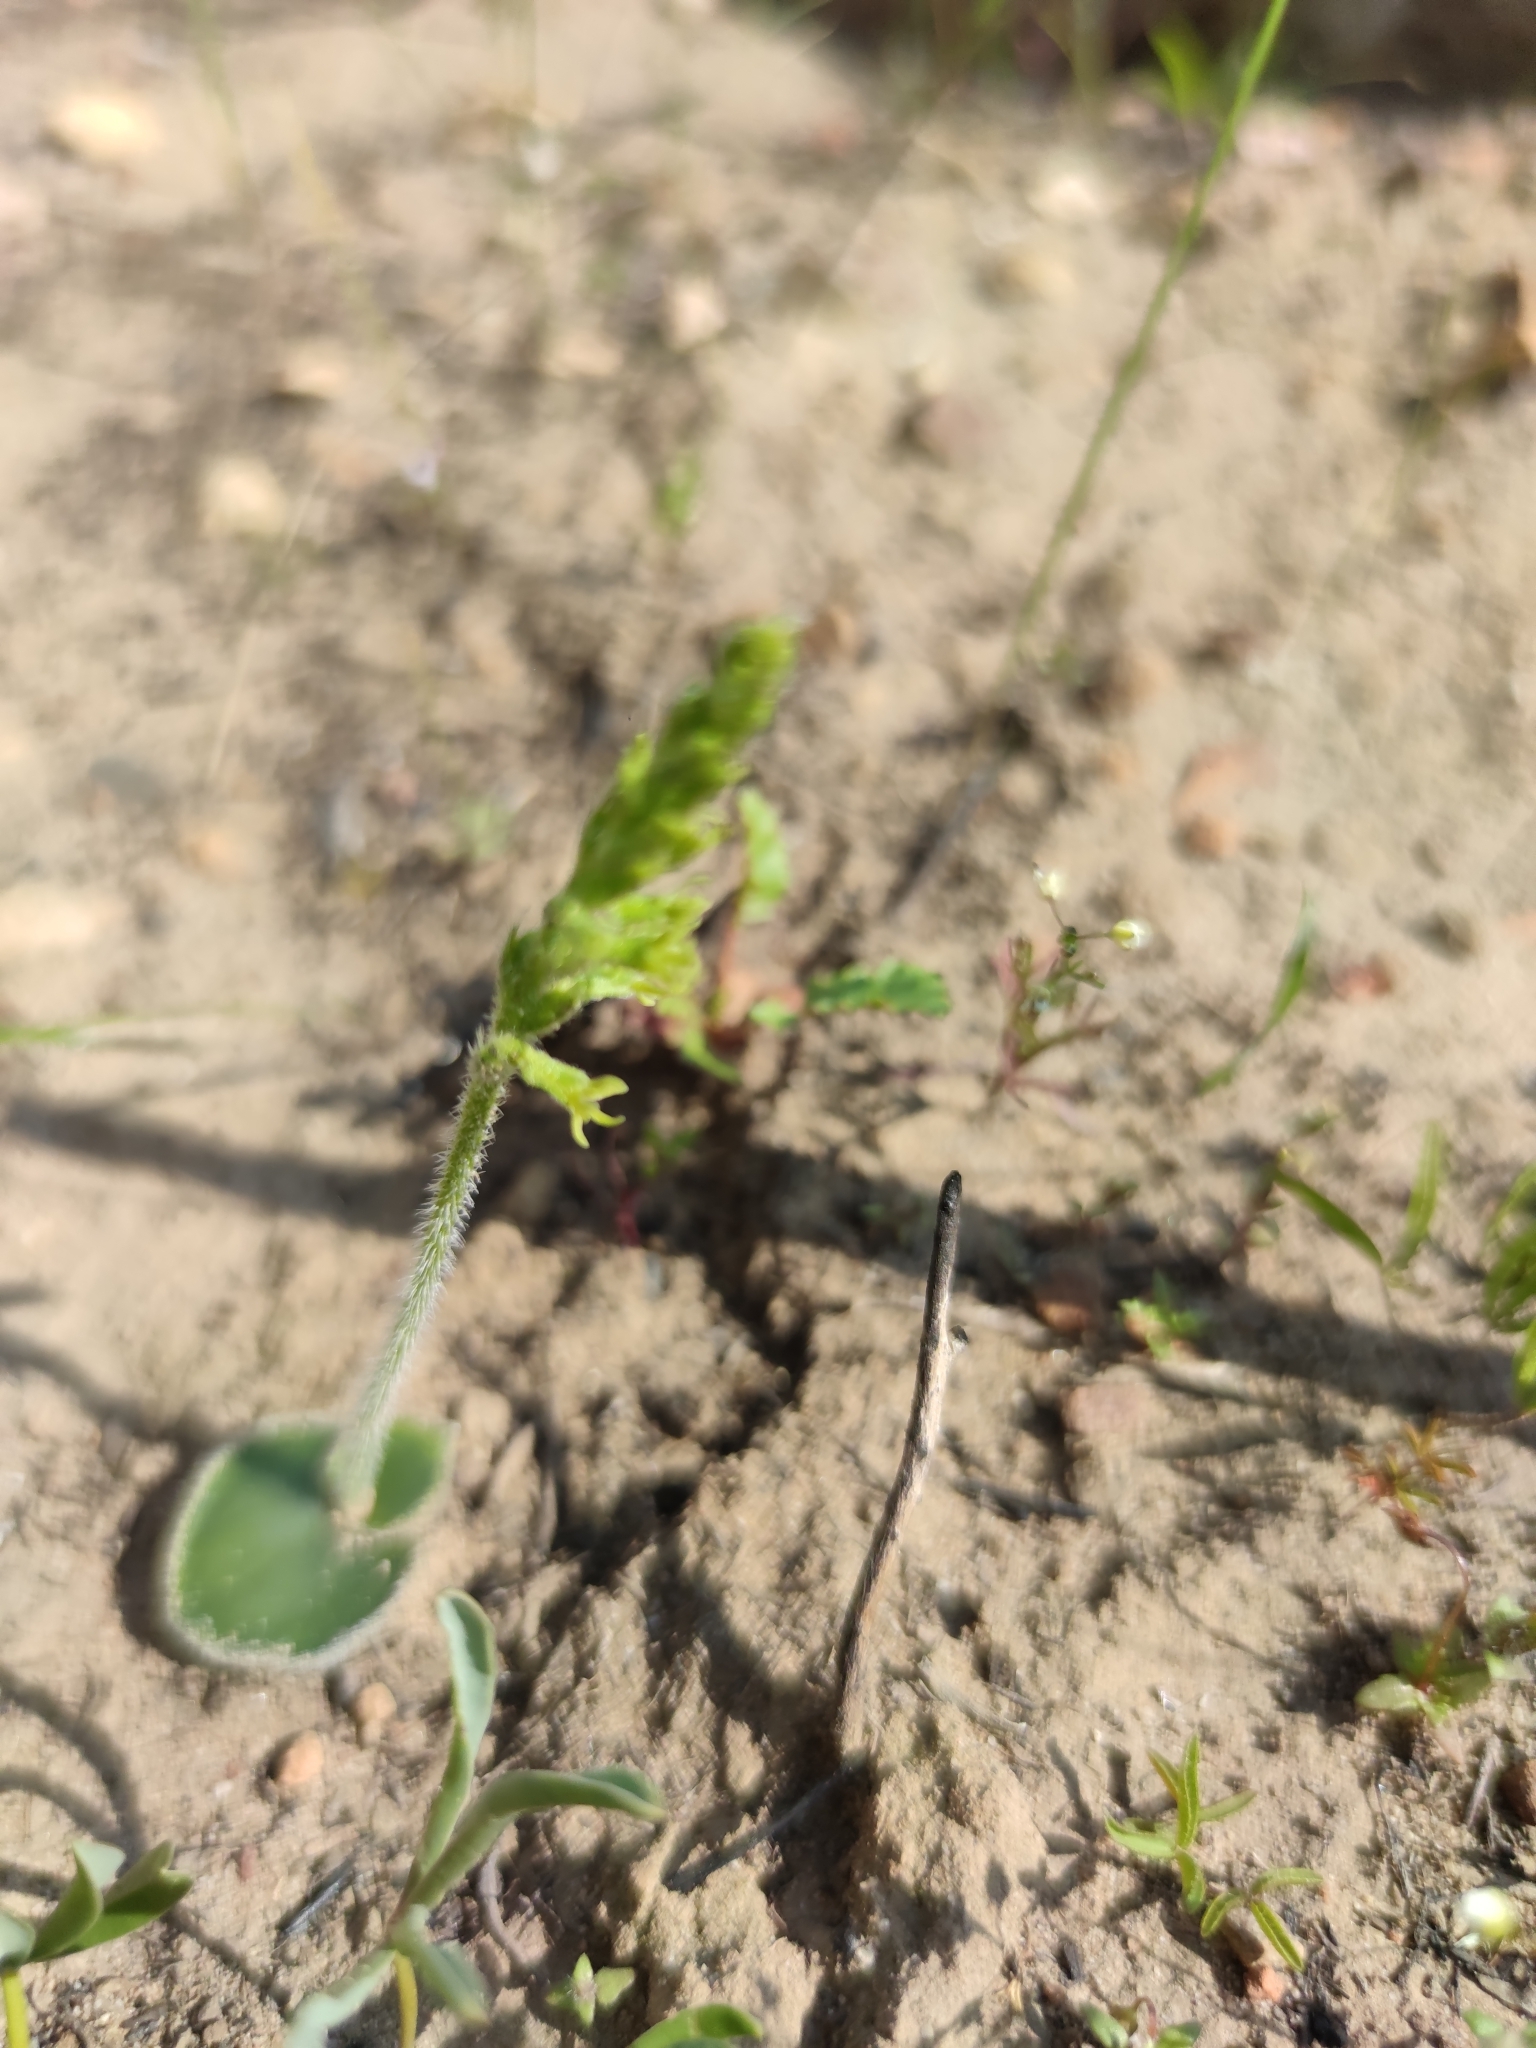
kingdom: Plantae
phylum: Tracheophyta
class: Liliopsida
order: Asparagales
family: Orchidaceae
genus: Holothrix
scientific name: Holothrix cernua
